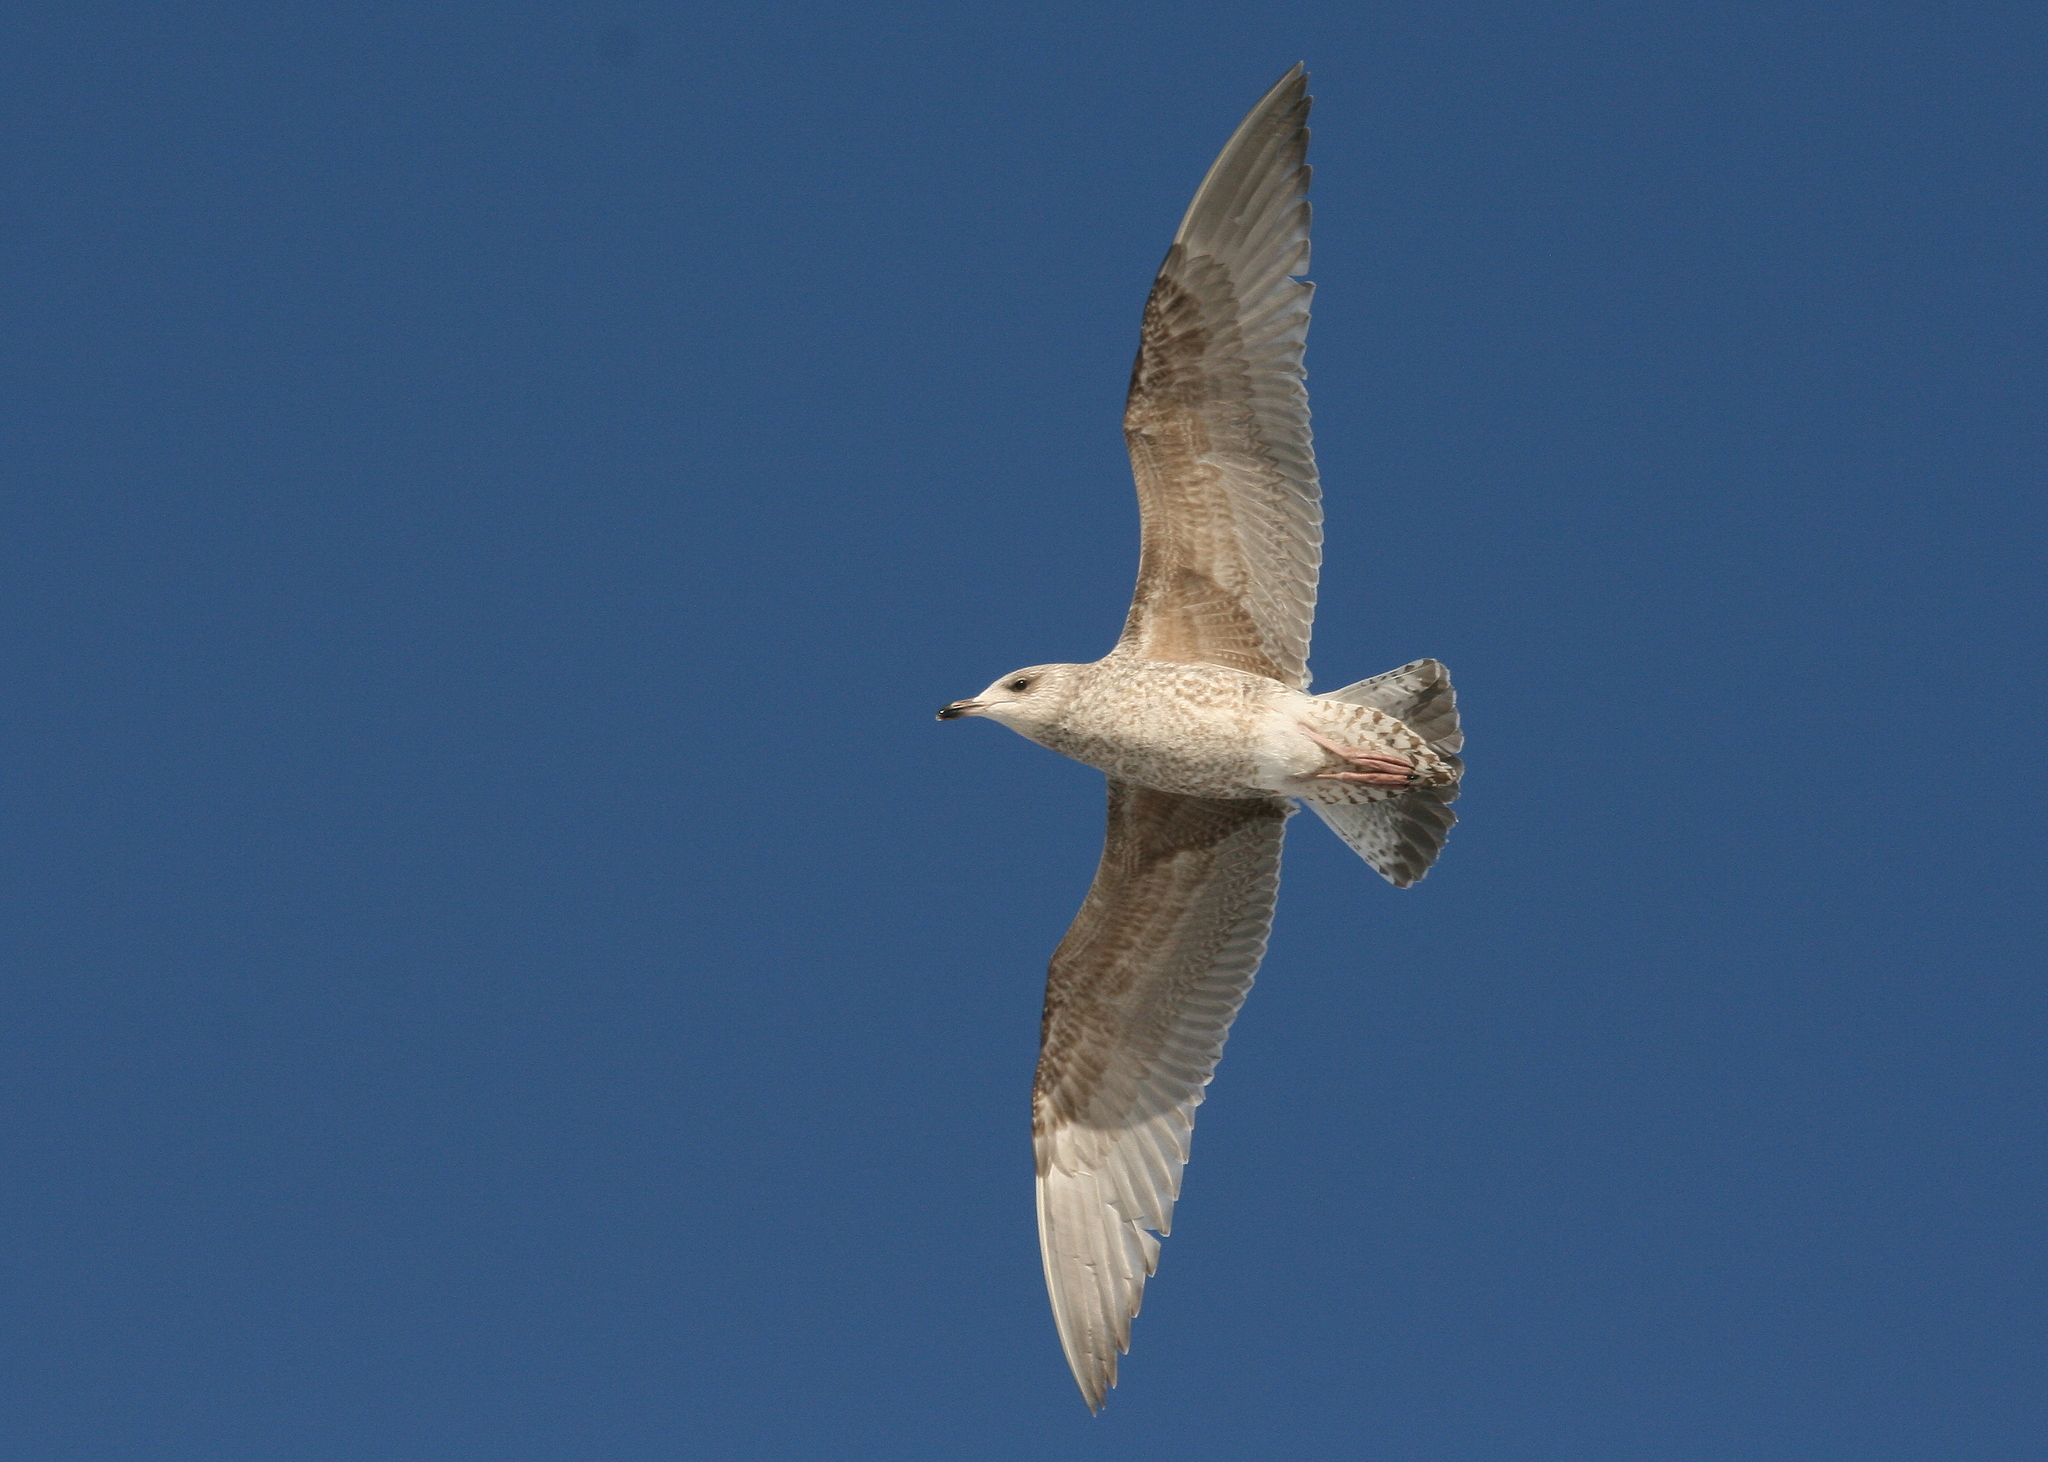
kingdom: Animalia
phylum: Chordata
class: Aves
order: Charadriiformes
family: Laridae
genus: Larus
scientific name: Larus argentatus
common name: Herring gull
